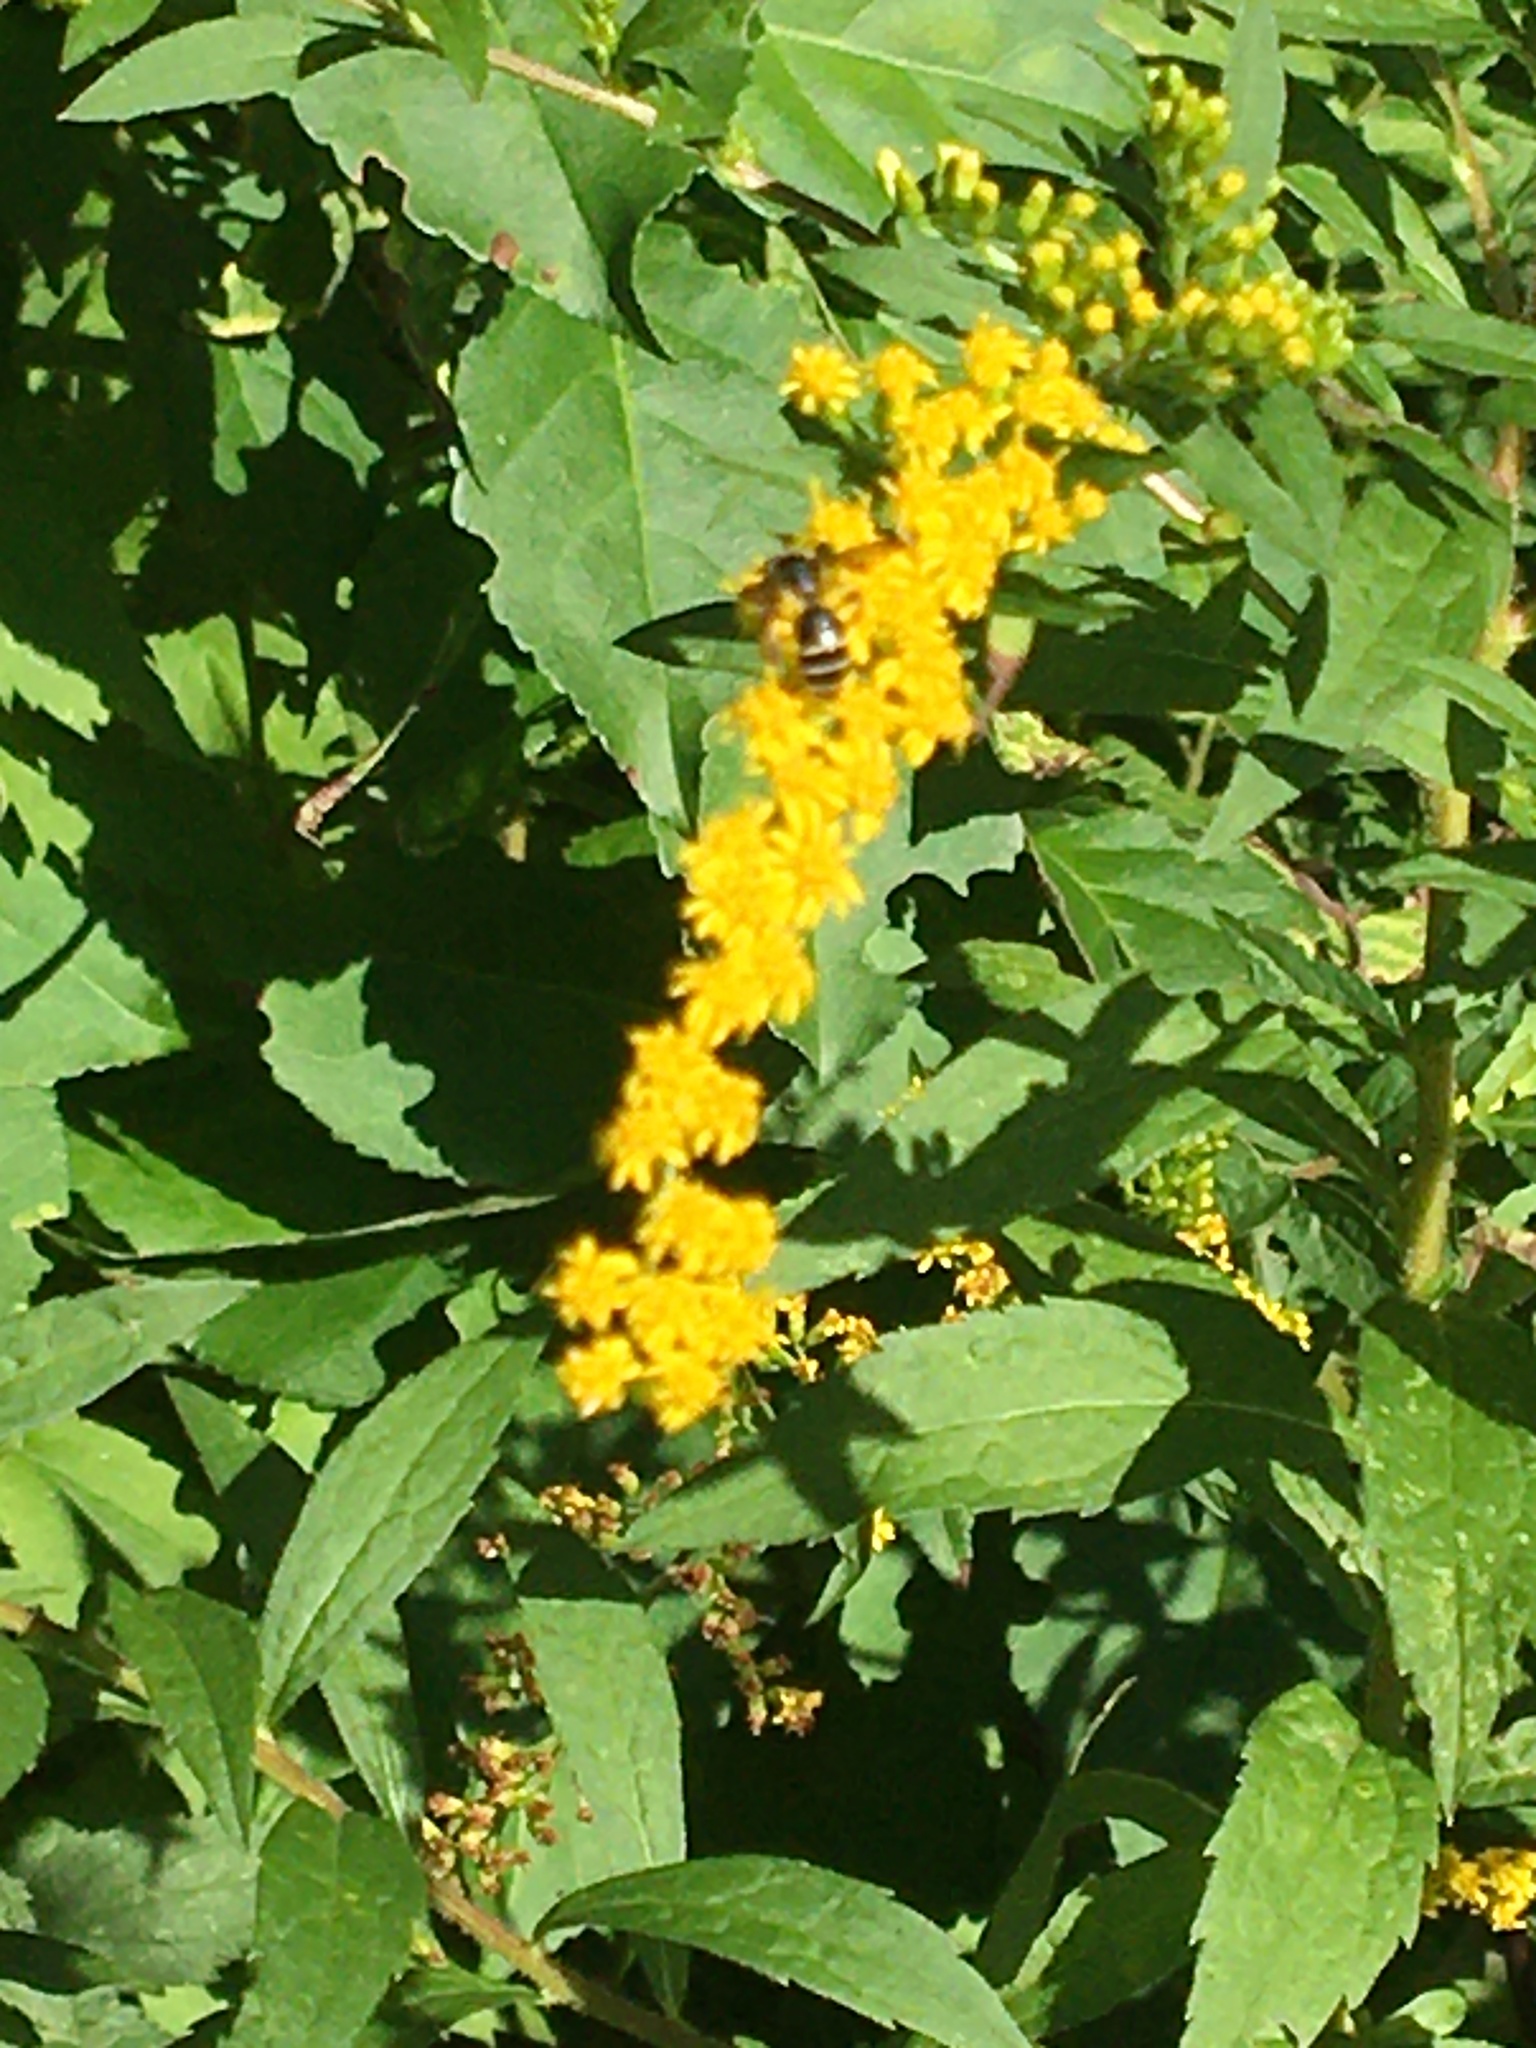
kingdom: Animalia
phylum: Arthropoda
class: Insecta
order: Hymenoptera
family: Andrenidae
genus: Andrena
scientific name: Andrena nubecula
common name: Cloudy-winged mining bee
